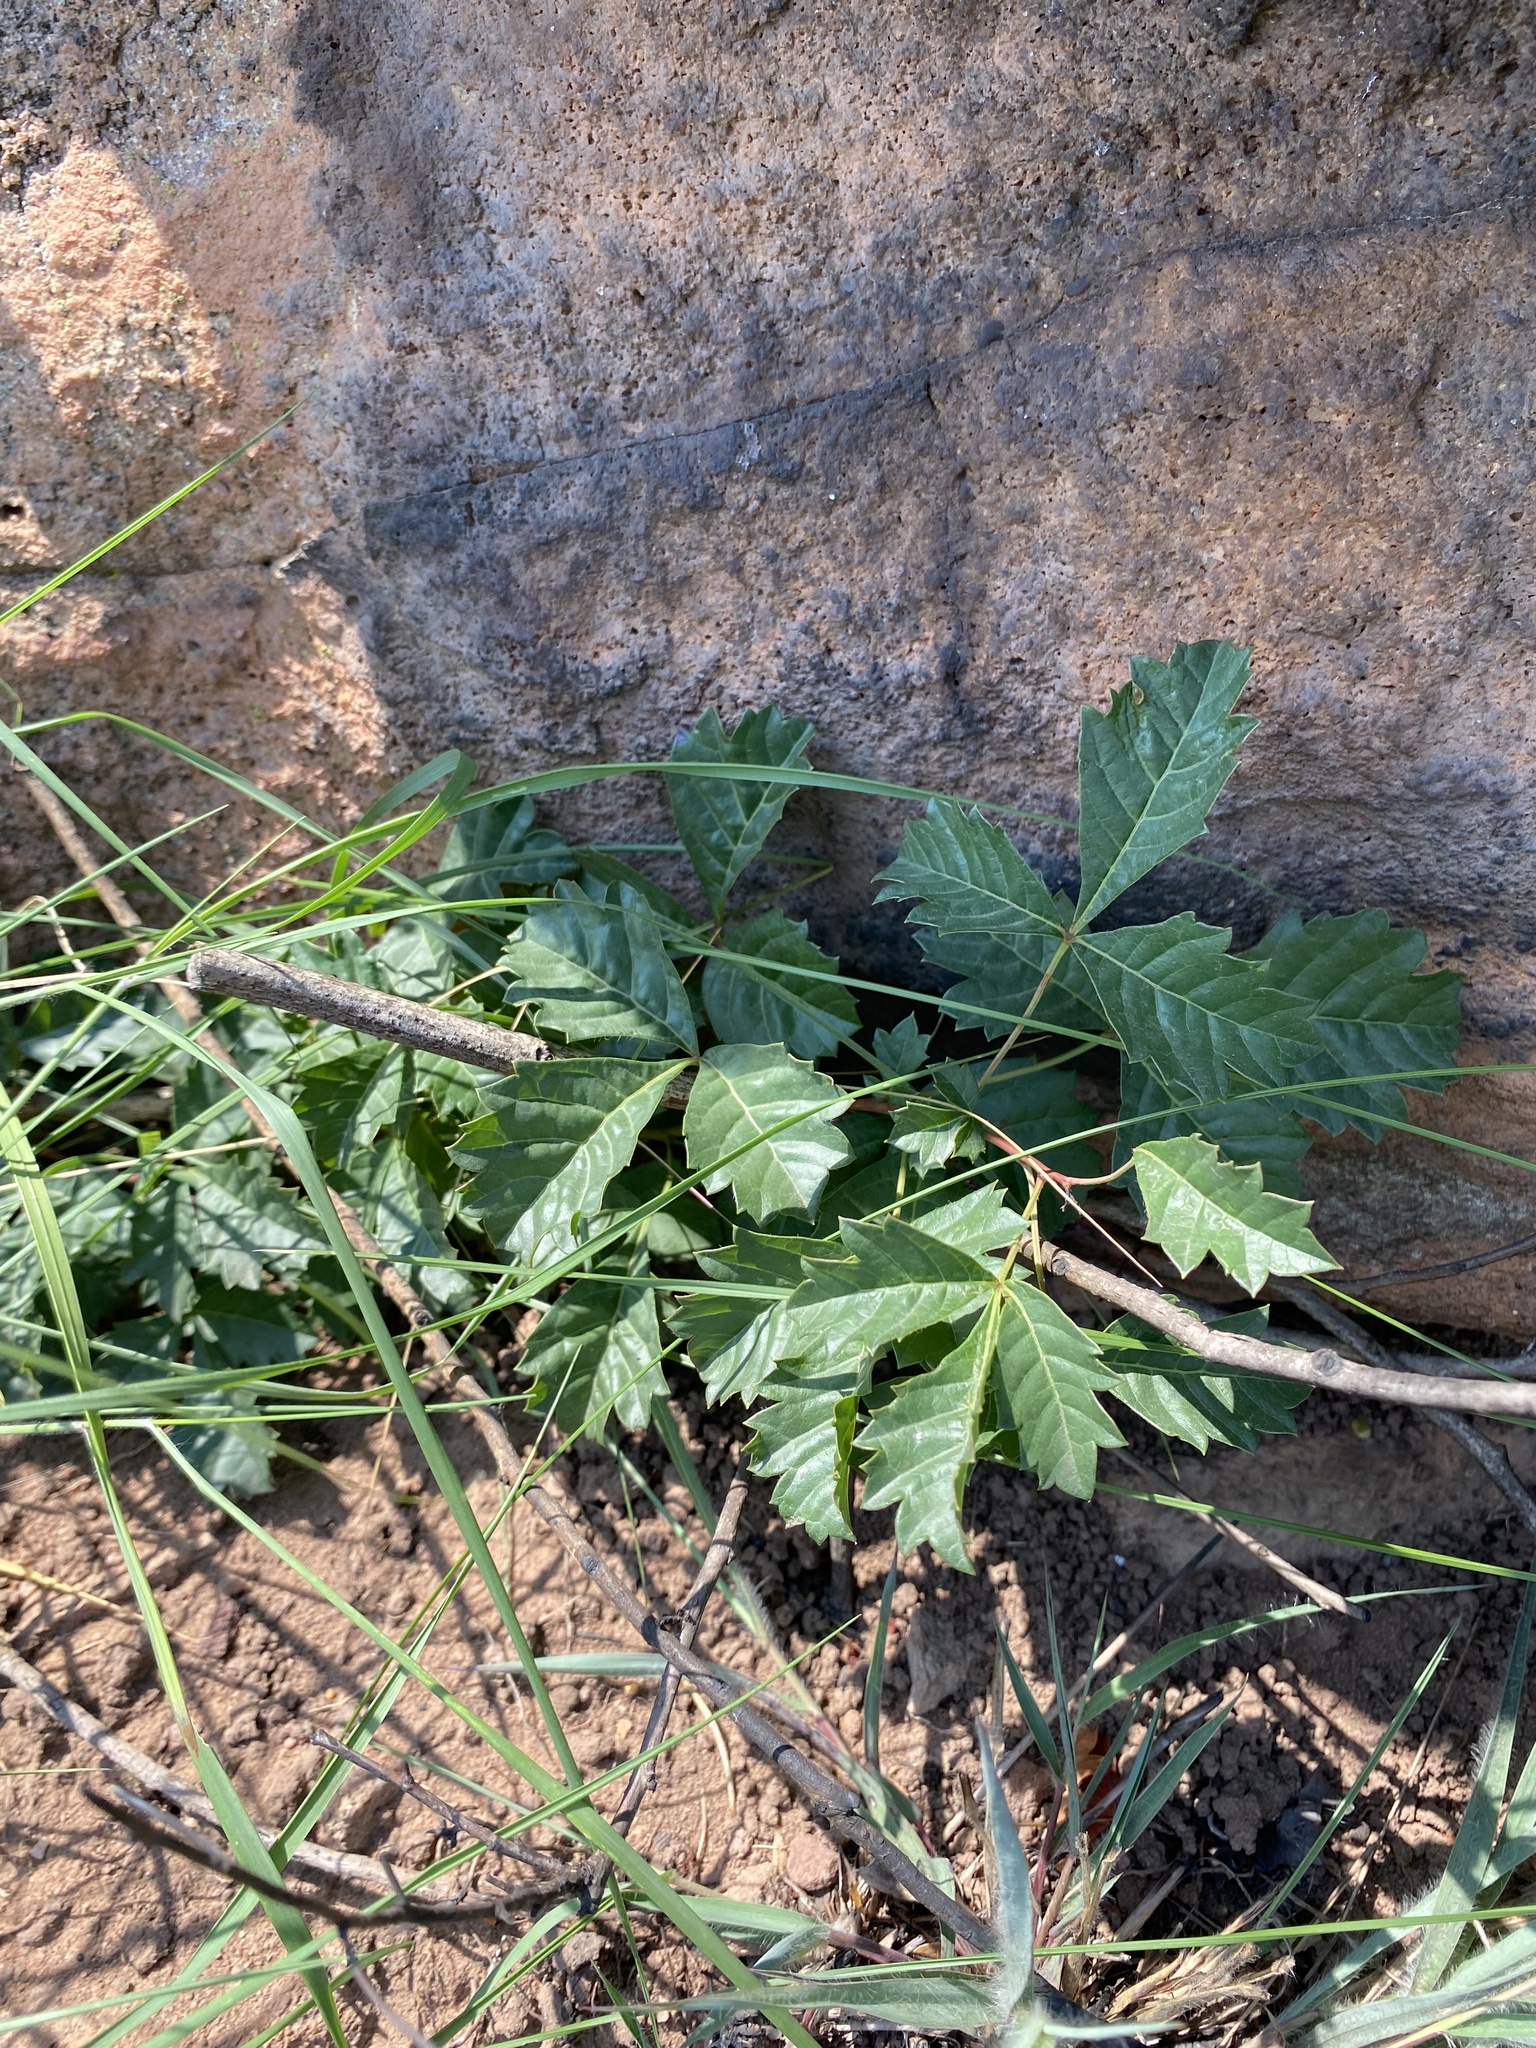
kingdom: Plantae
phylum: Tracheophyta
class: Magnoliopsida
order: Sapindales
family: Anacardiaceae
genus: Searsia
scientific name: Searsia dentata
